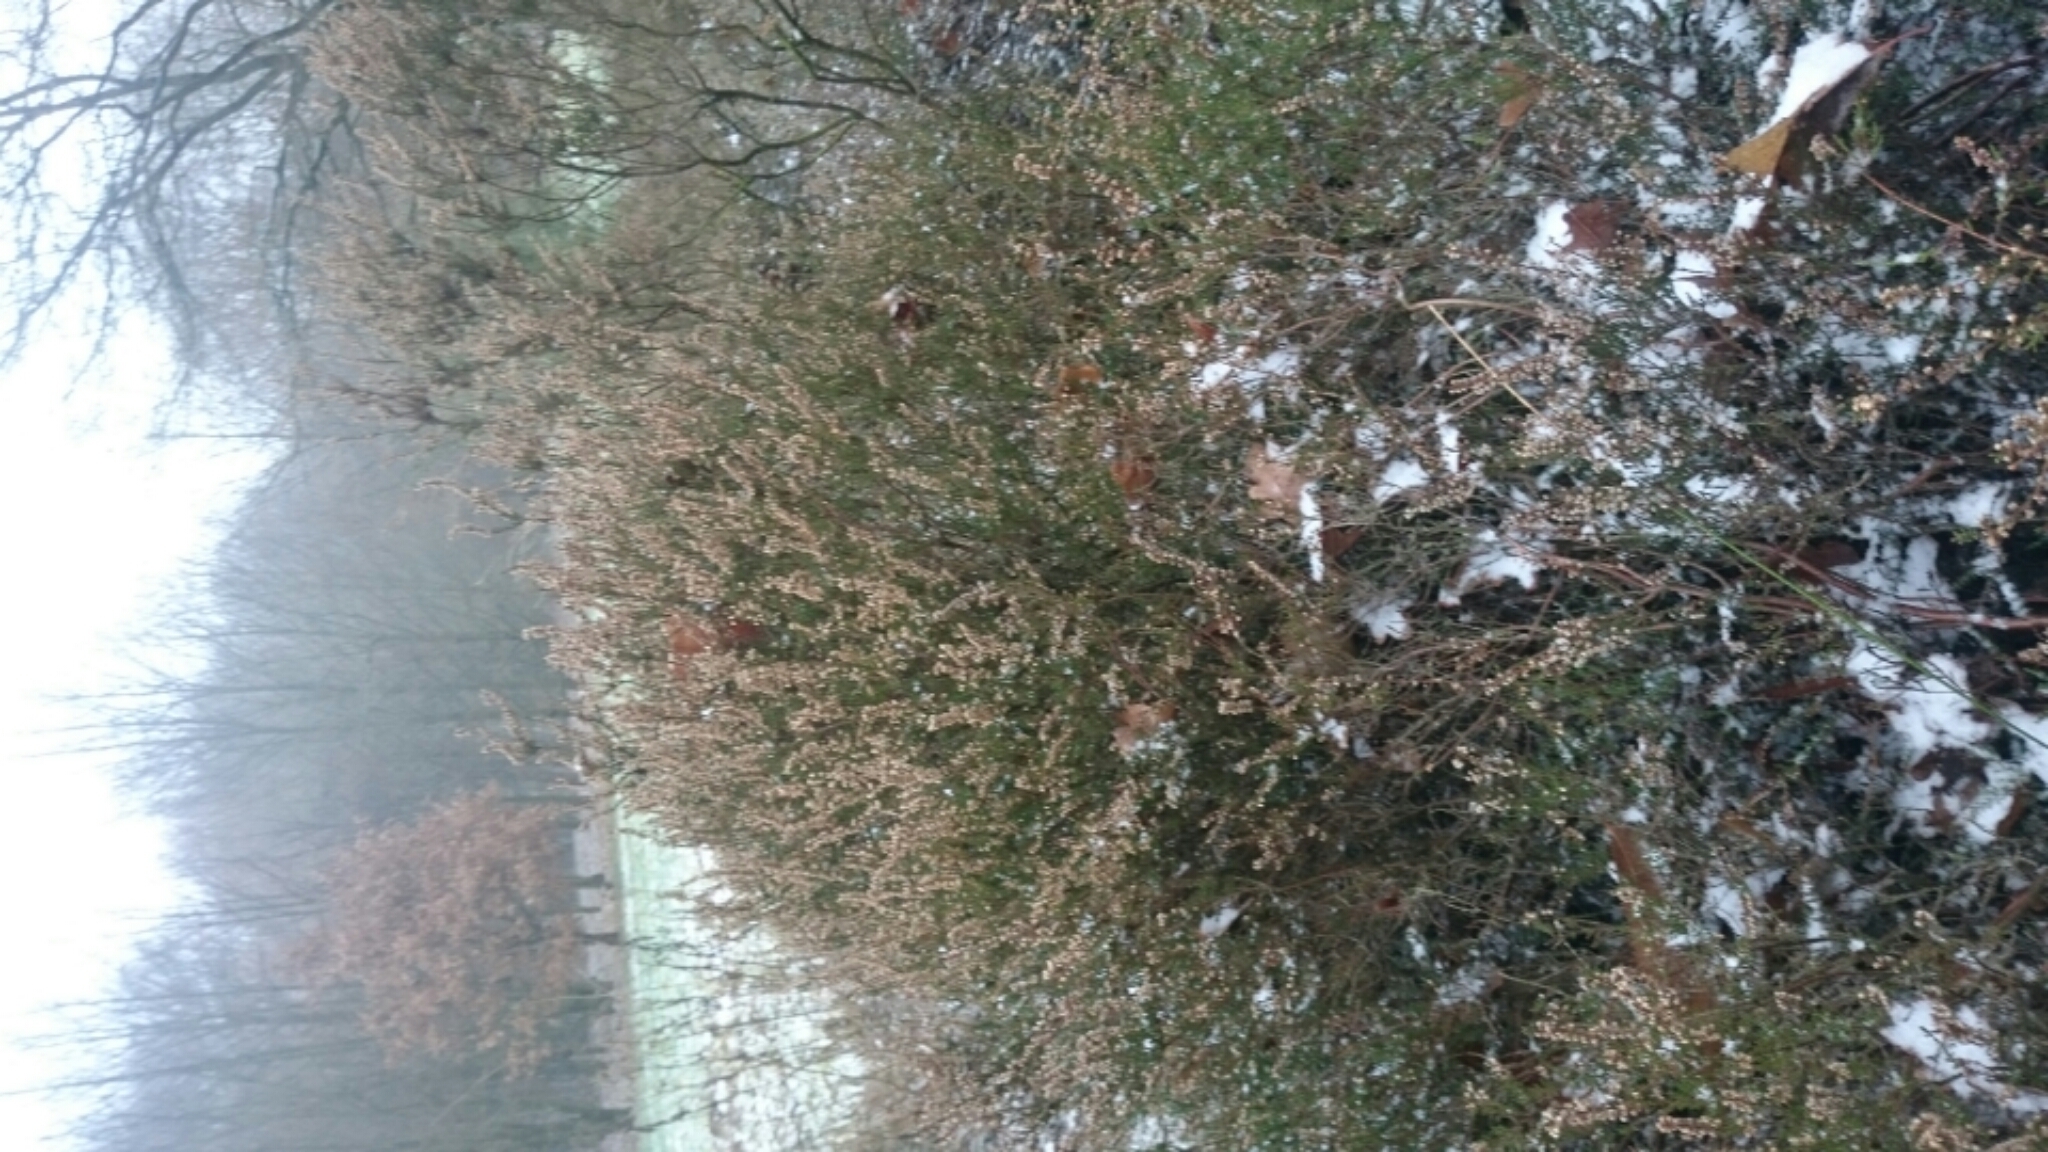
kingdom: Plantae
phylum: Tracheophyta
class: Magnoliopsida
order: Ericales
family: Ericaceae
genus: Calluna
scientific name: Calluna vulgaris
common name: Heather
